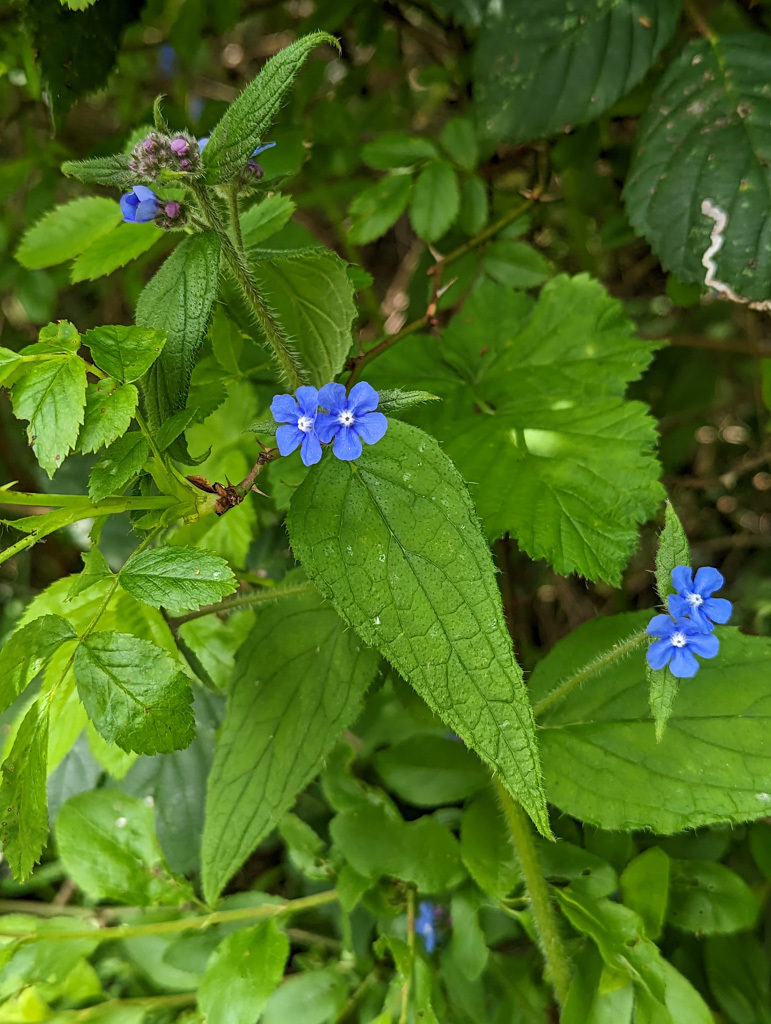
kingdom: Plantae
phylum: Tracheophyta
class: Magnoliopsida
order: Boraginales
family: Boraginaceae
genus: Pentaglottis
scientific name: Pentaglottis sempervirens
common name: Green alkanet
